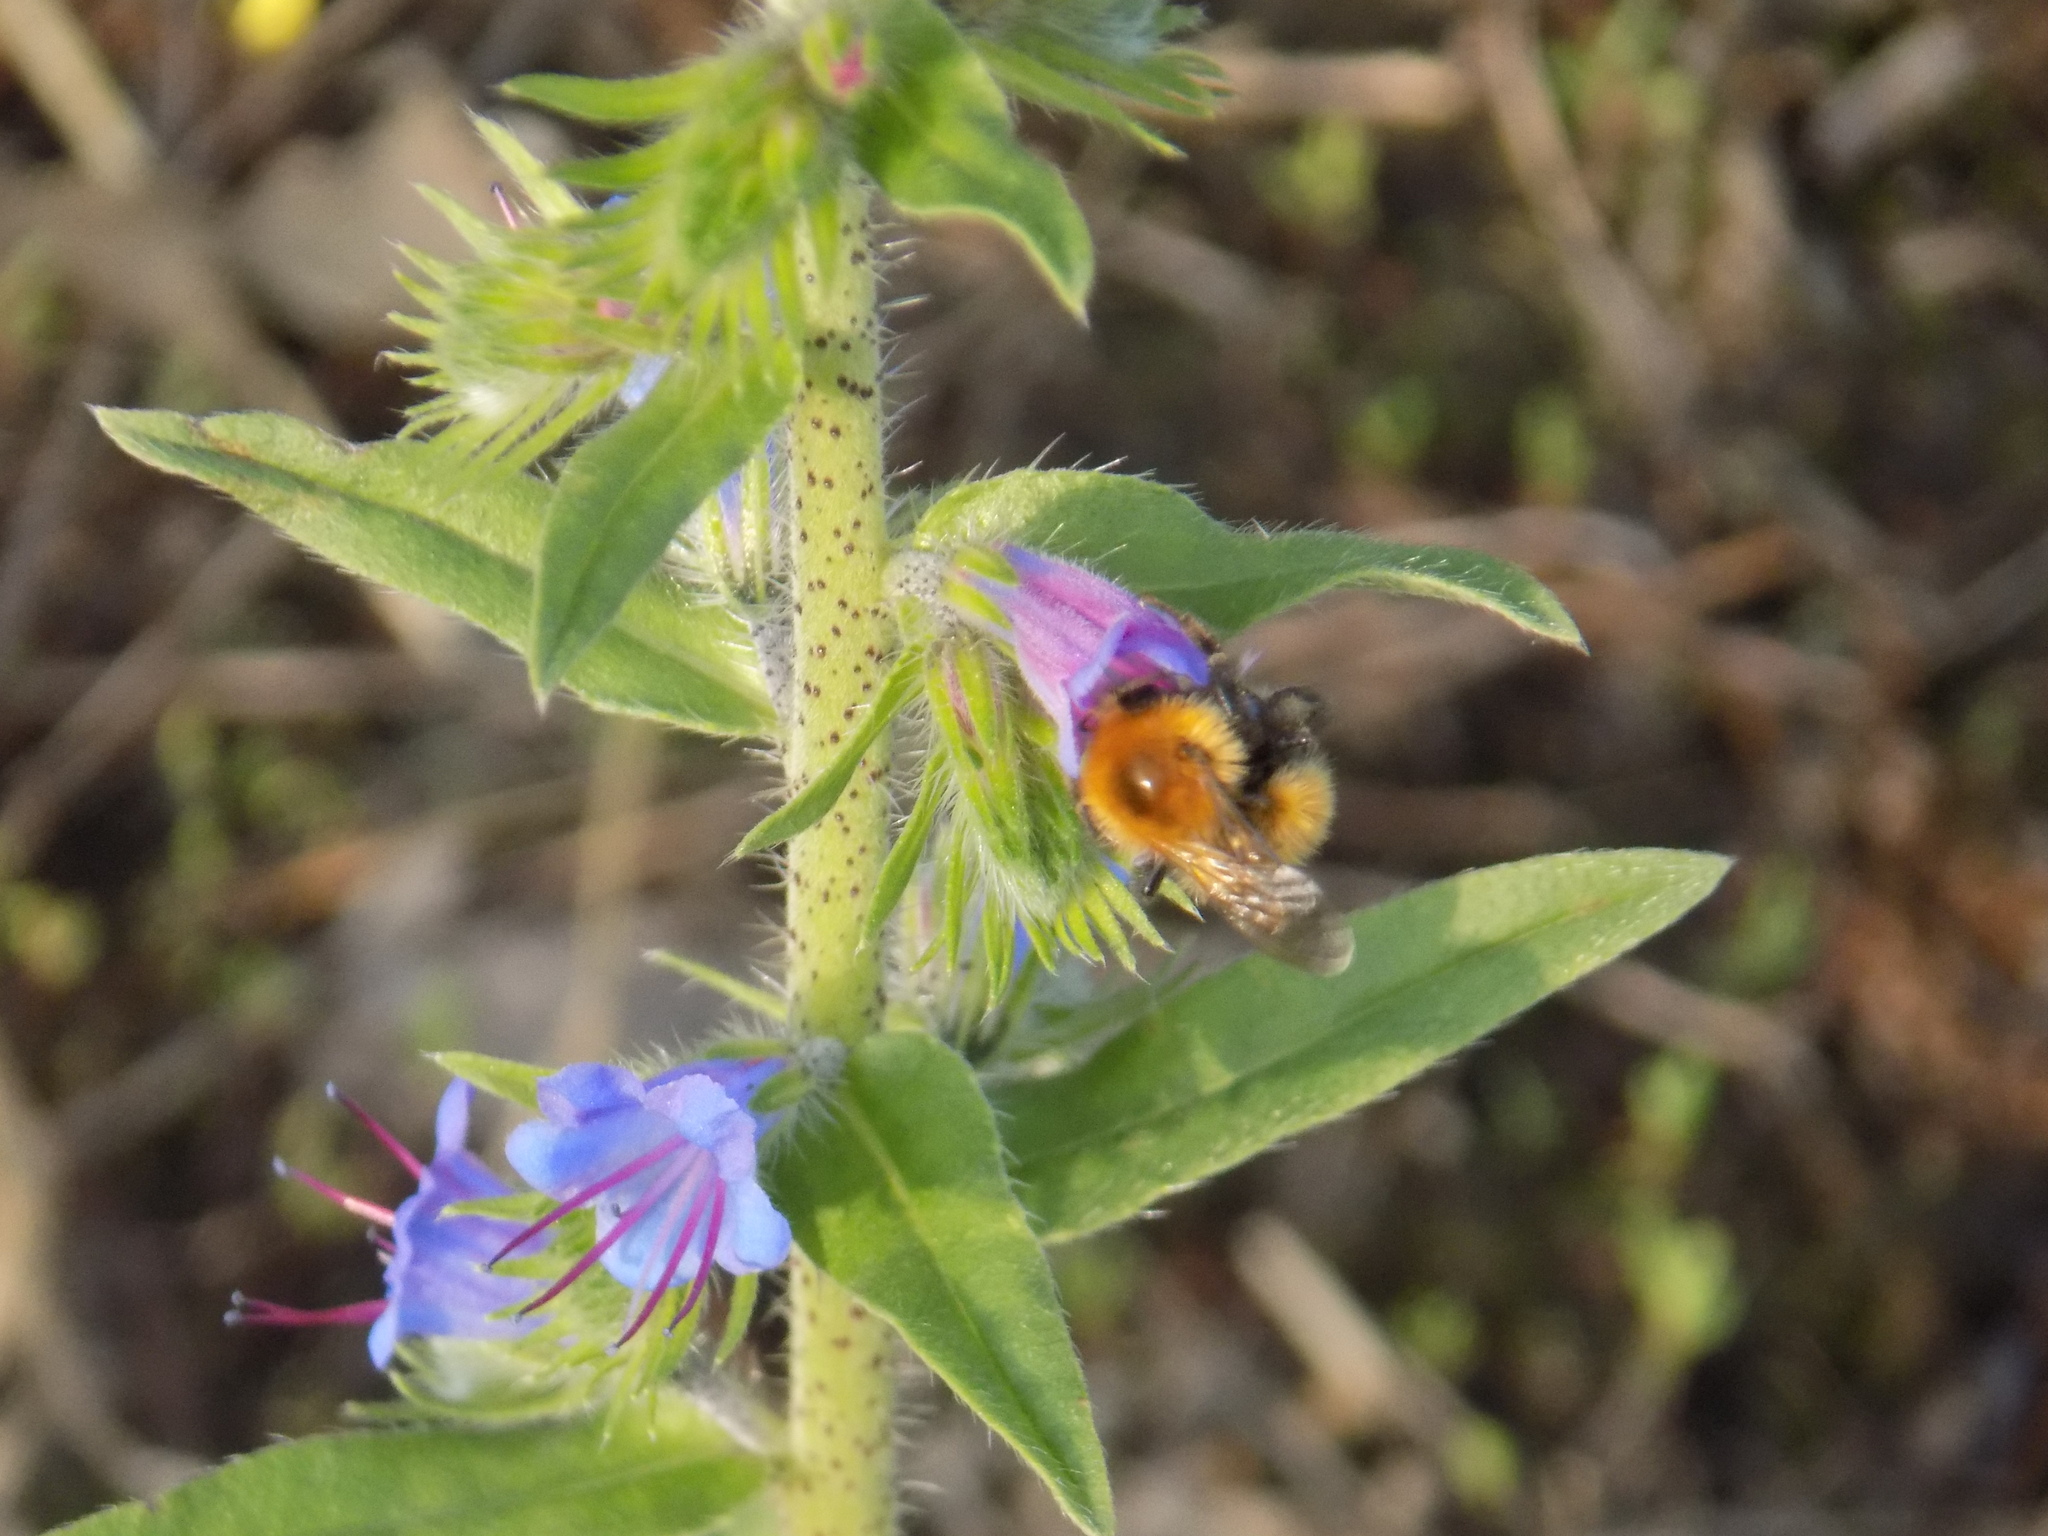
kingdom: Animalia
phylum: Arthropoda
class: Insecta
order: Hymenoptera
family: Apidae
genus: Bombus
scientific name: Bombus hypnorum
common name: New garden bumblebee
